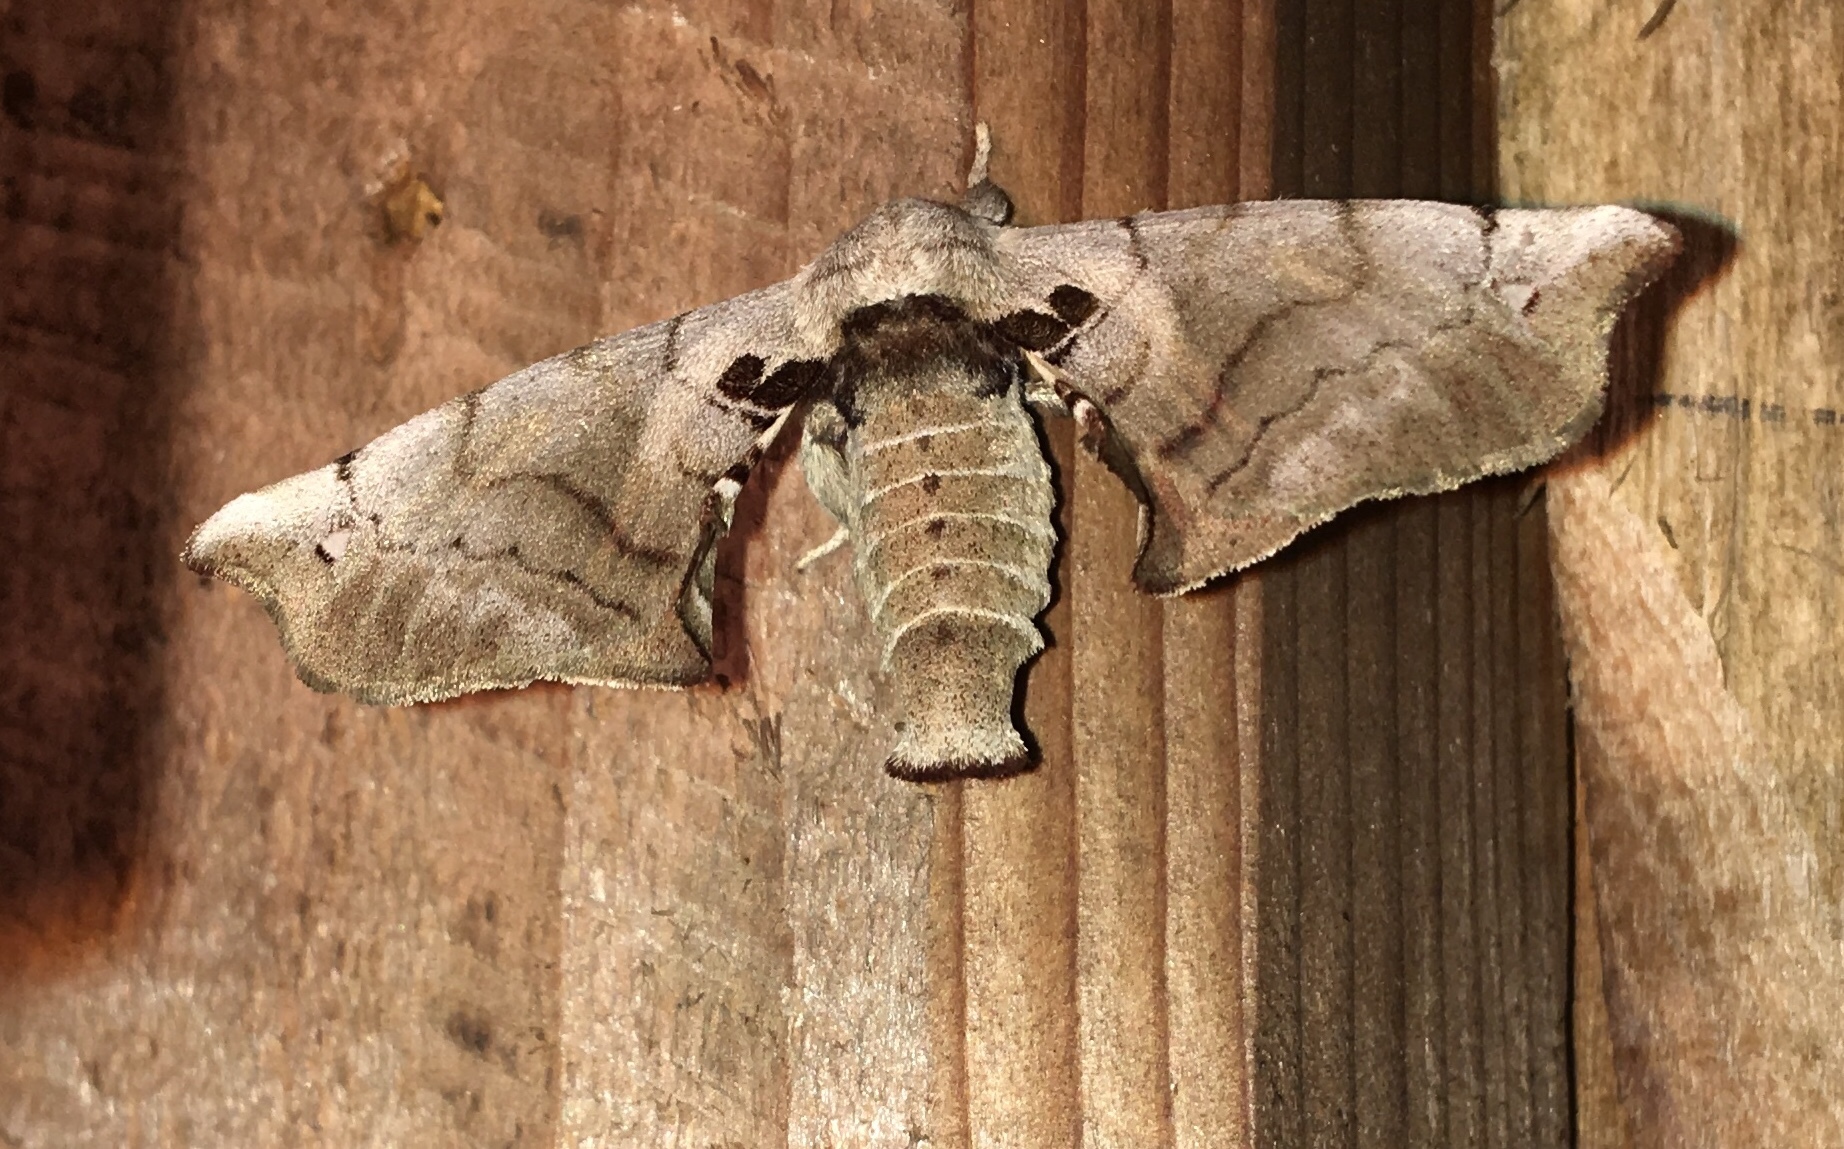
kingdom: Animalia
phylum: Arthropoda
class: Insecta
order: Lepidoptera
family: Apatelodidae
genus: Hygrochroa
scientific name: Hygrochroa Apatelodes torrefacta
